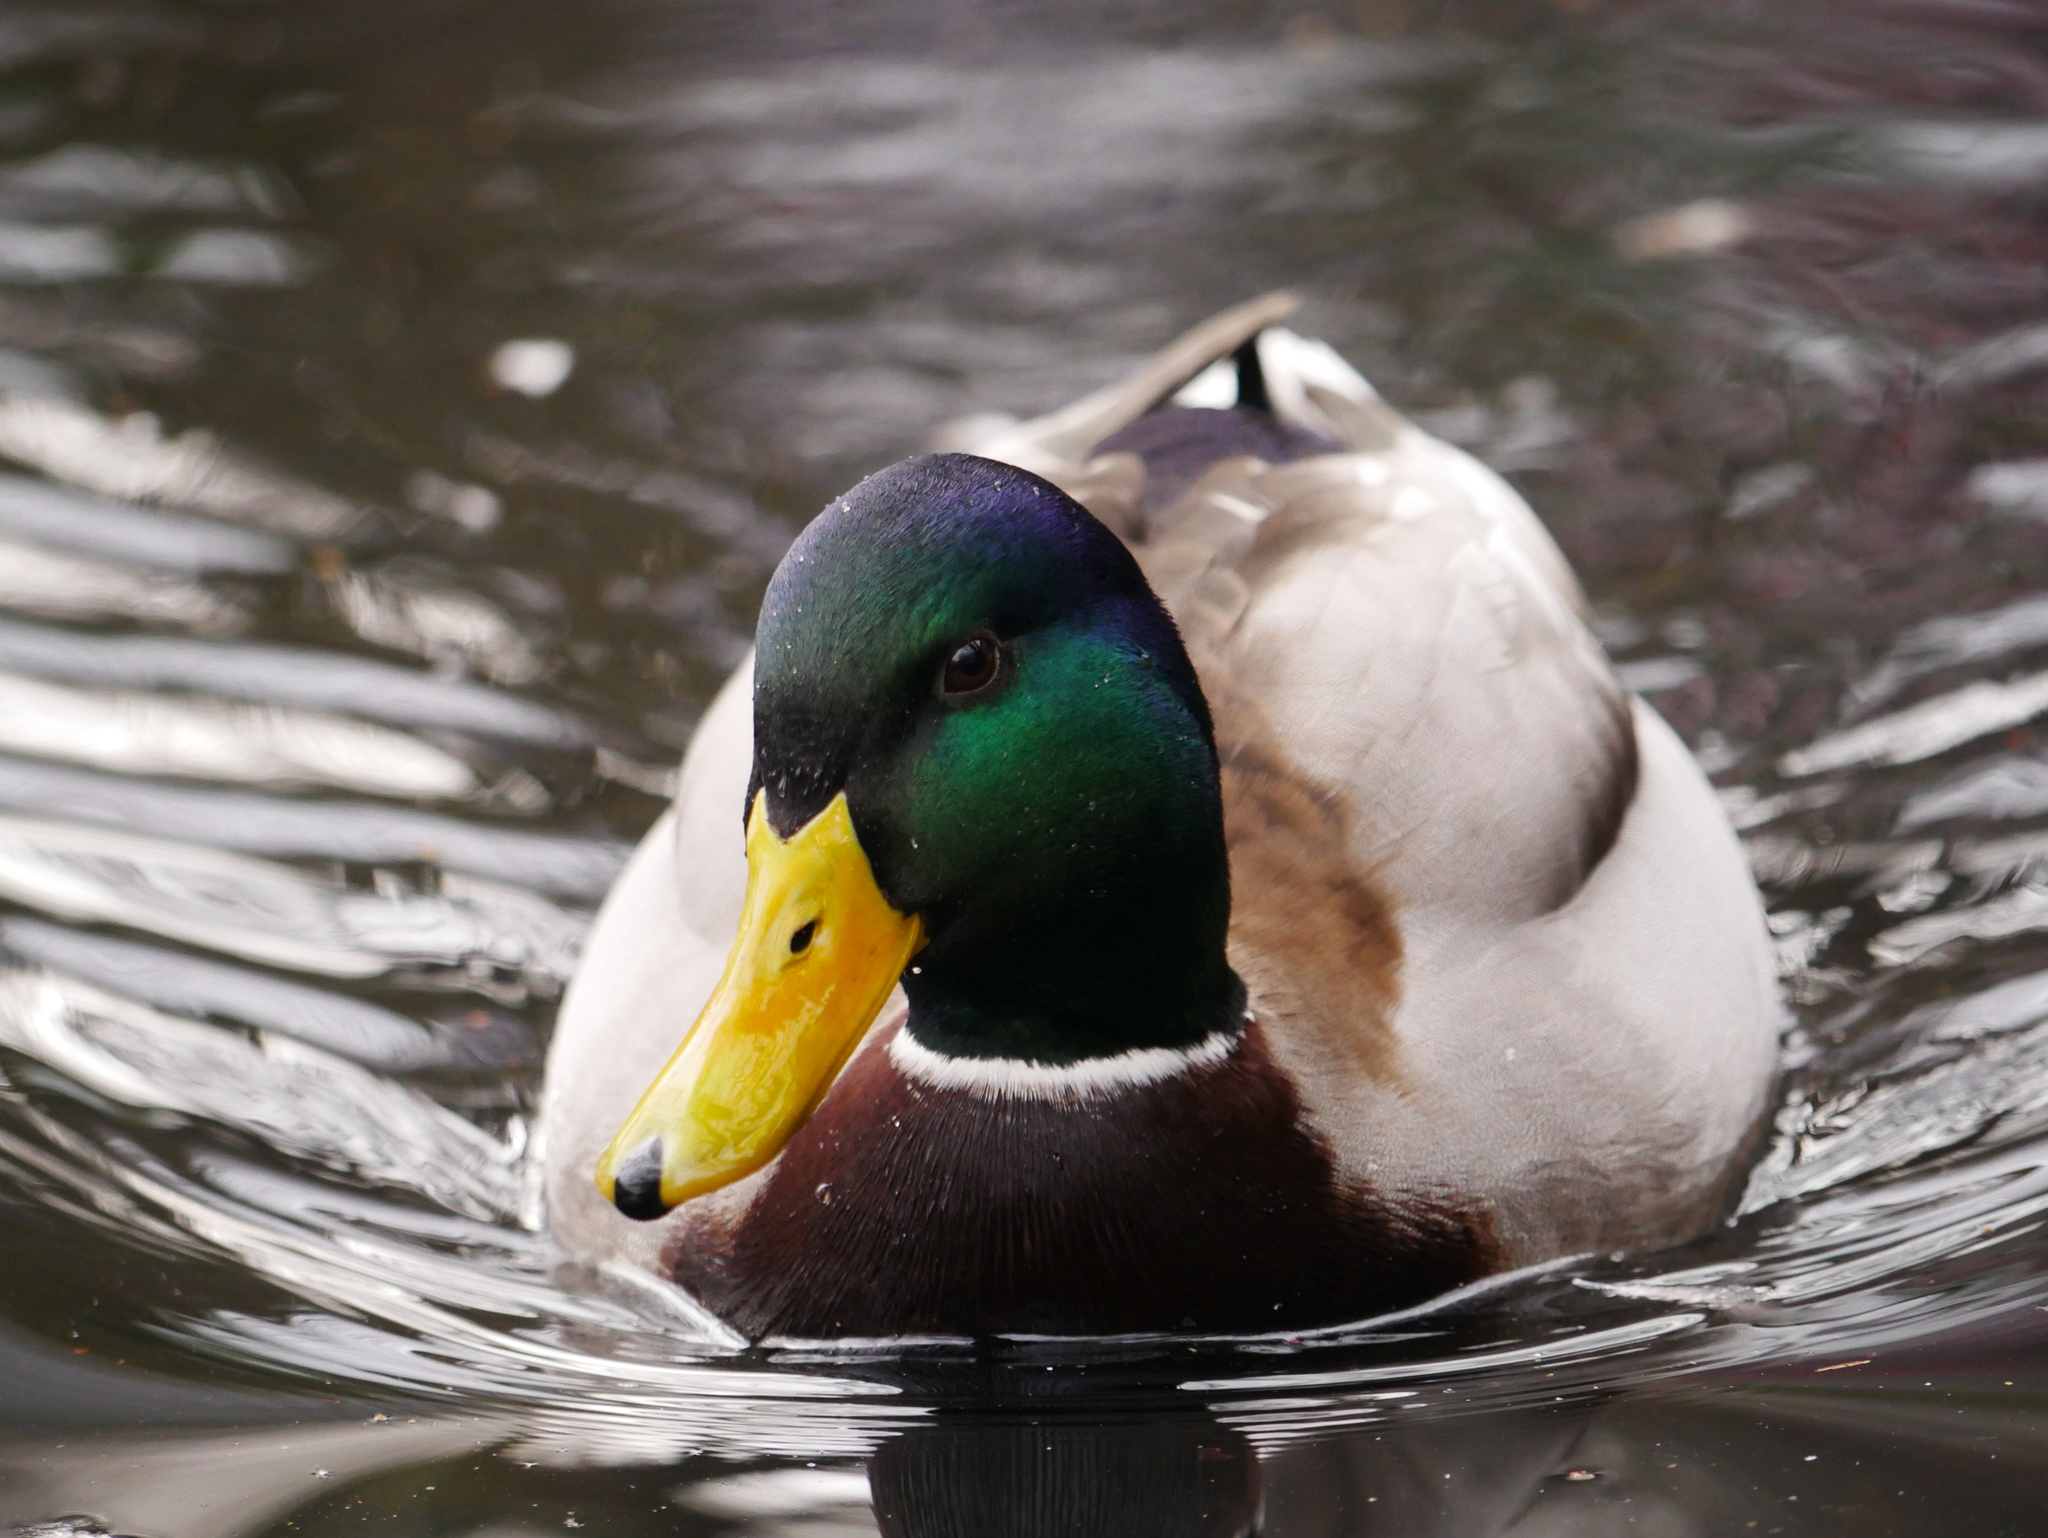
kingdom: Animalia
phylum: Chordata
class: Aves
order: Anseriformes
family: Anatidae
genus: Anas
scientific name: Anas platyrhynchos
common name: Mallard
